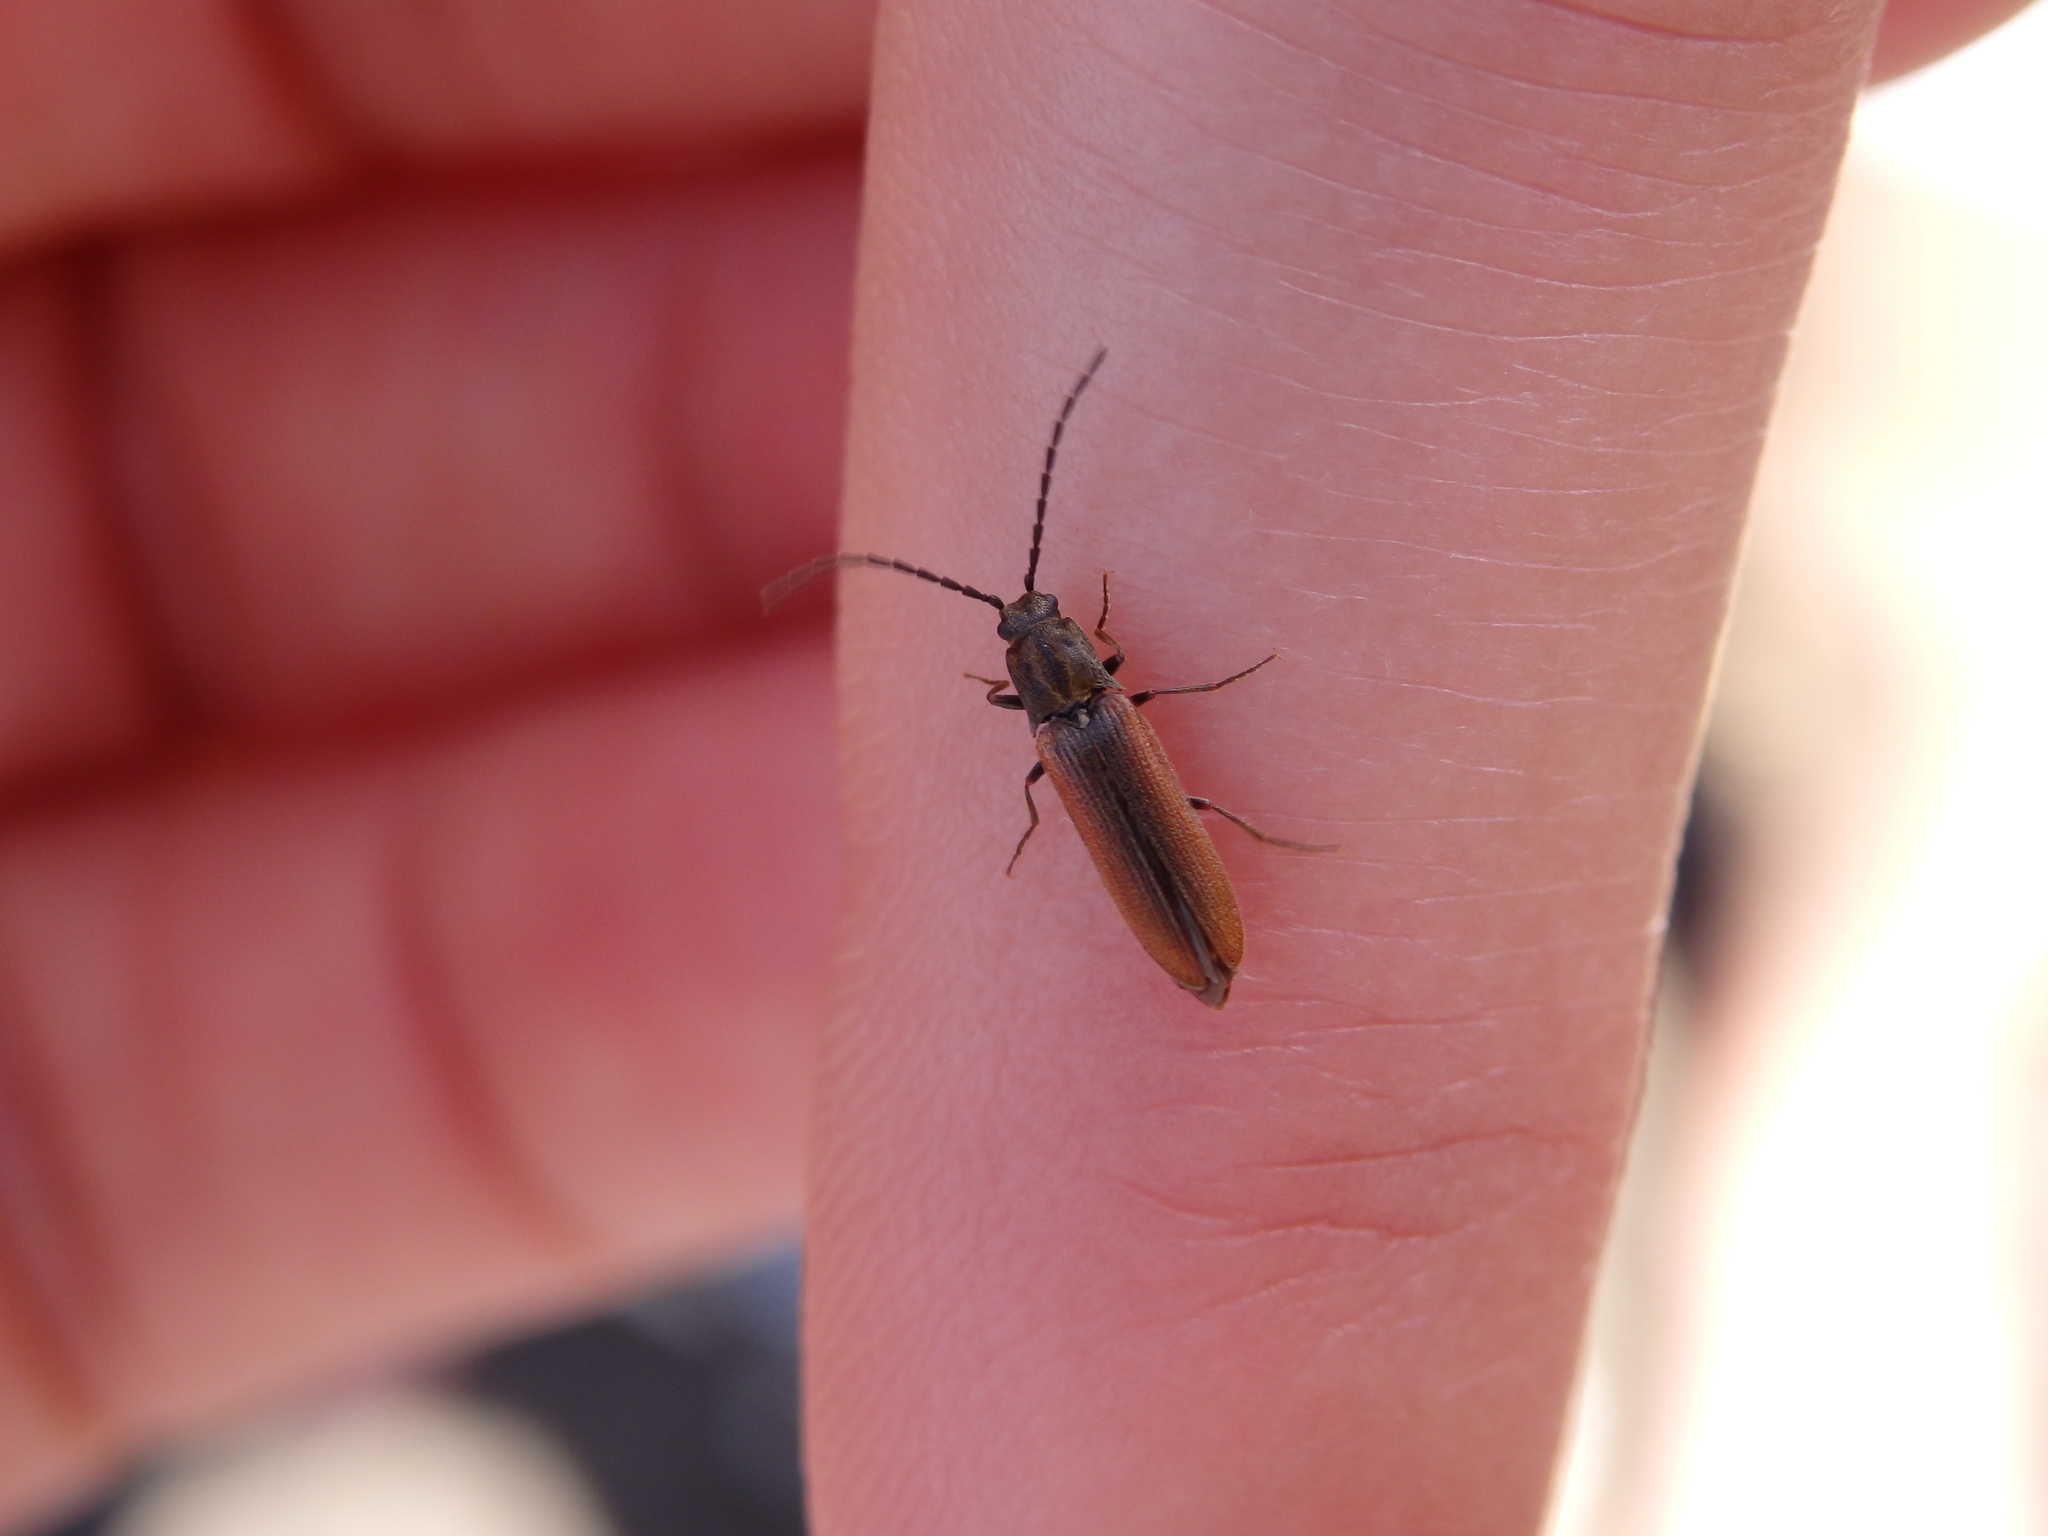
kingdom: Animalia
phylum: Arthropoda
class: Insecta
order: Coleoptera
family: Elateridae
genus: Campylomorphus
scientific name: Campylomorphus homalisinus
